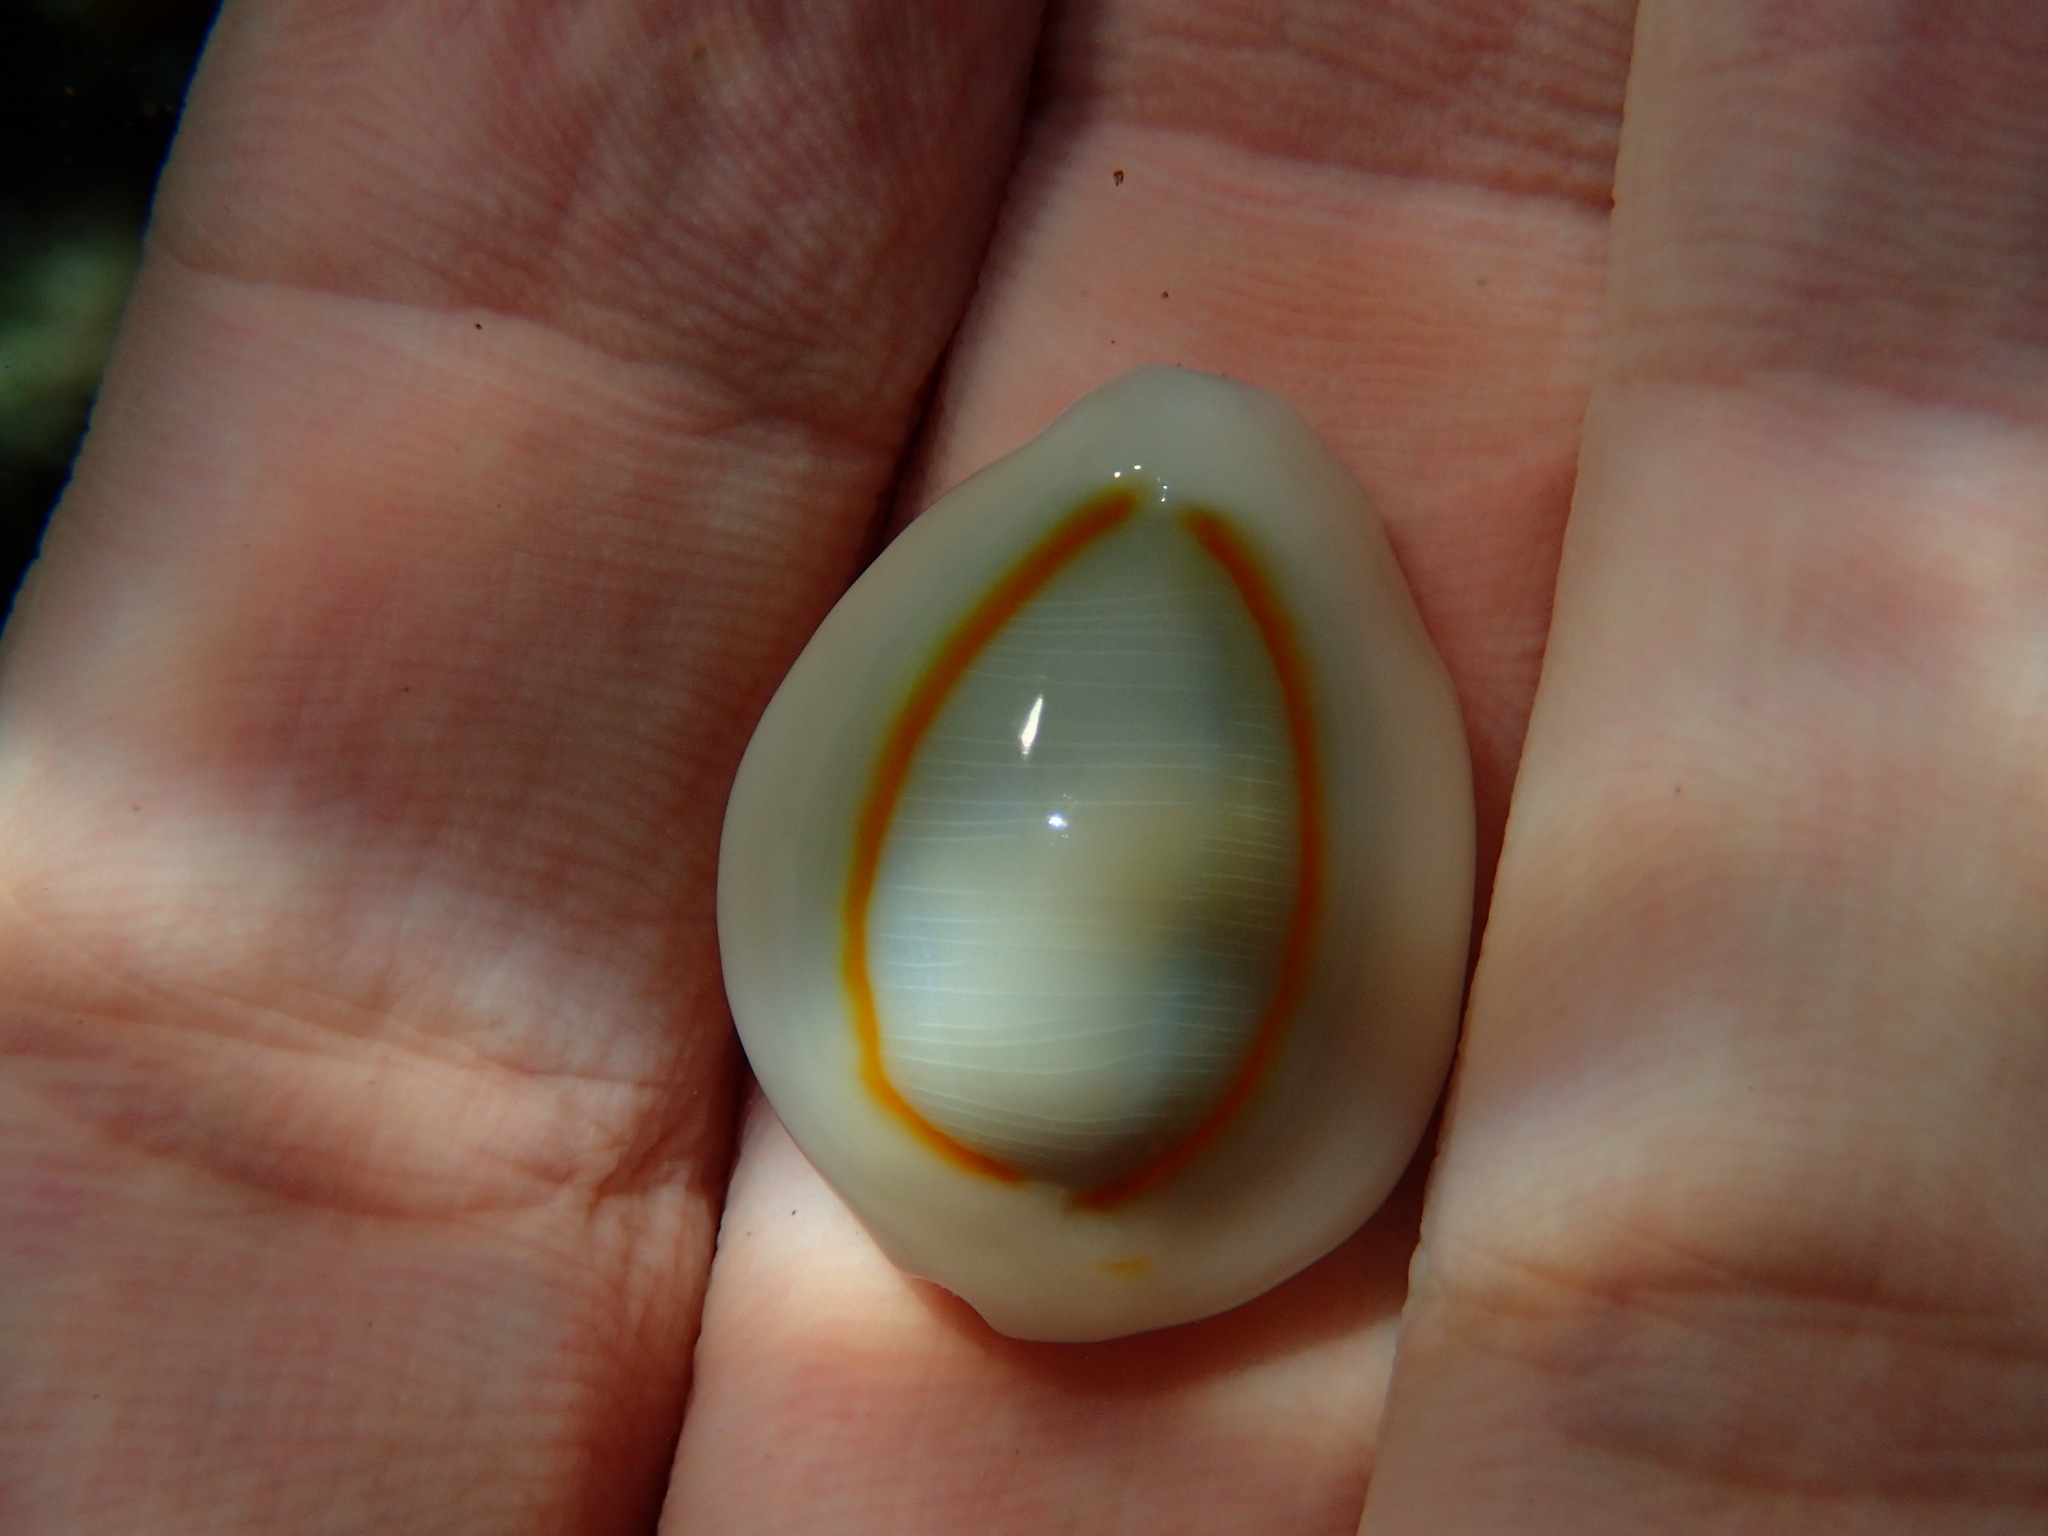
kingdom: Animalia
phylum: Mollusca
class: Gastropoda
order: Littorinimorpha
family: Cypraeidae
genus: Monetaria
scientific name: Monetaria annulus
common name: Ring cowrie
